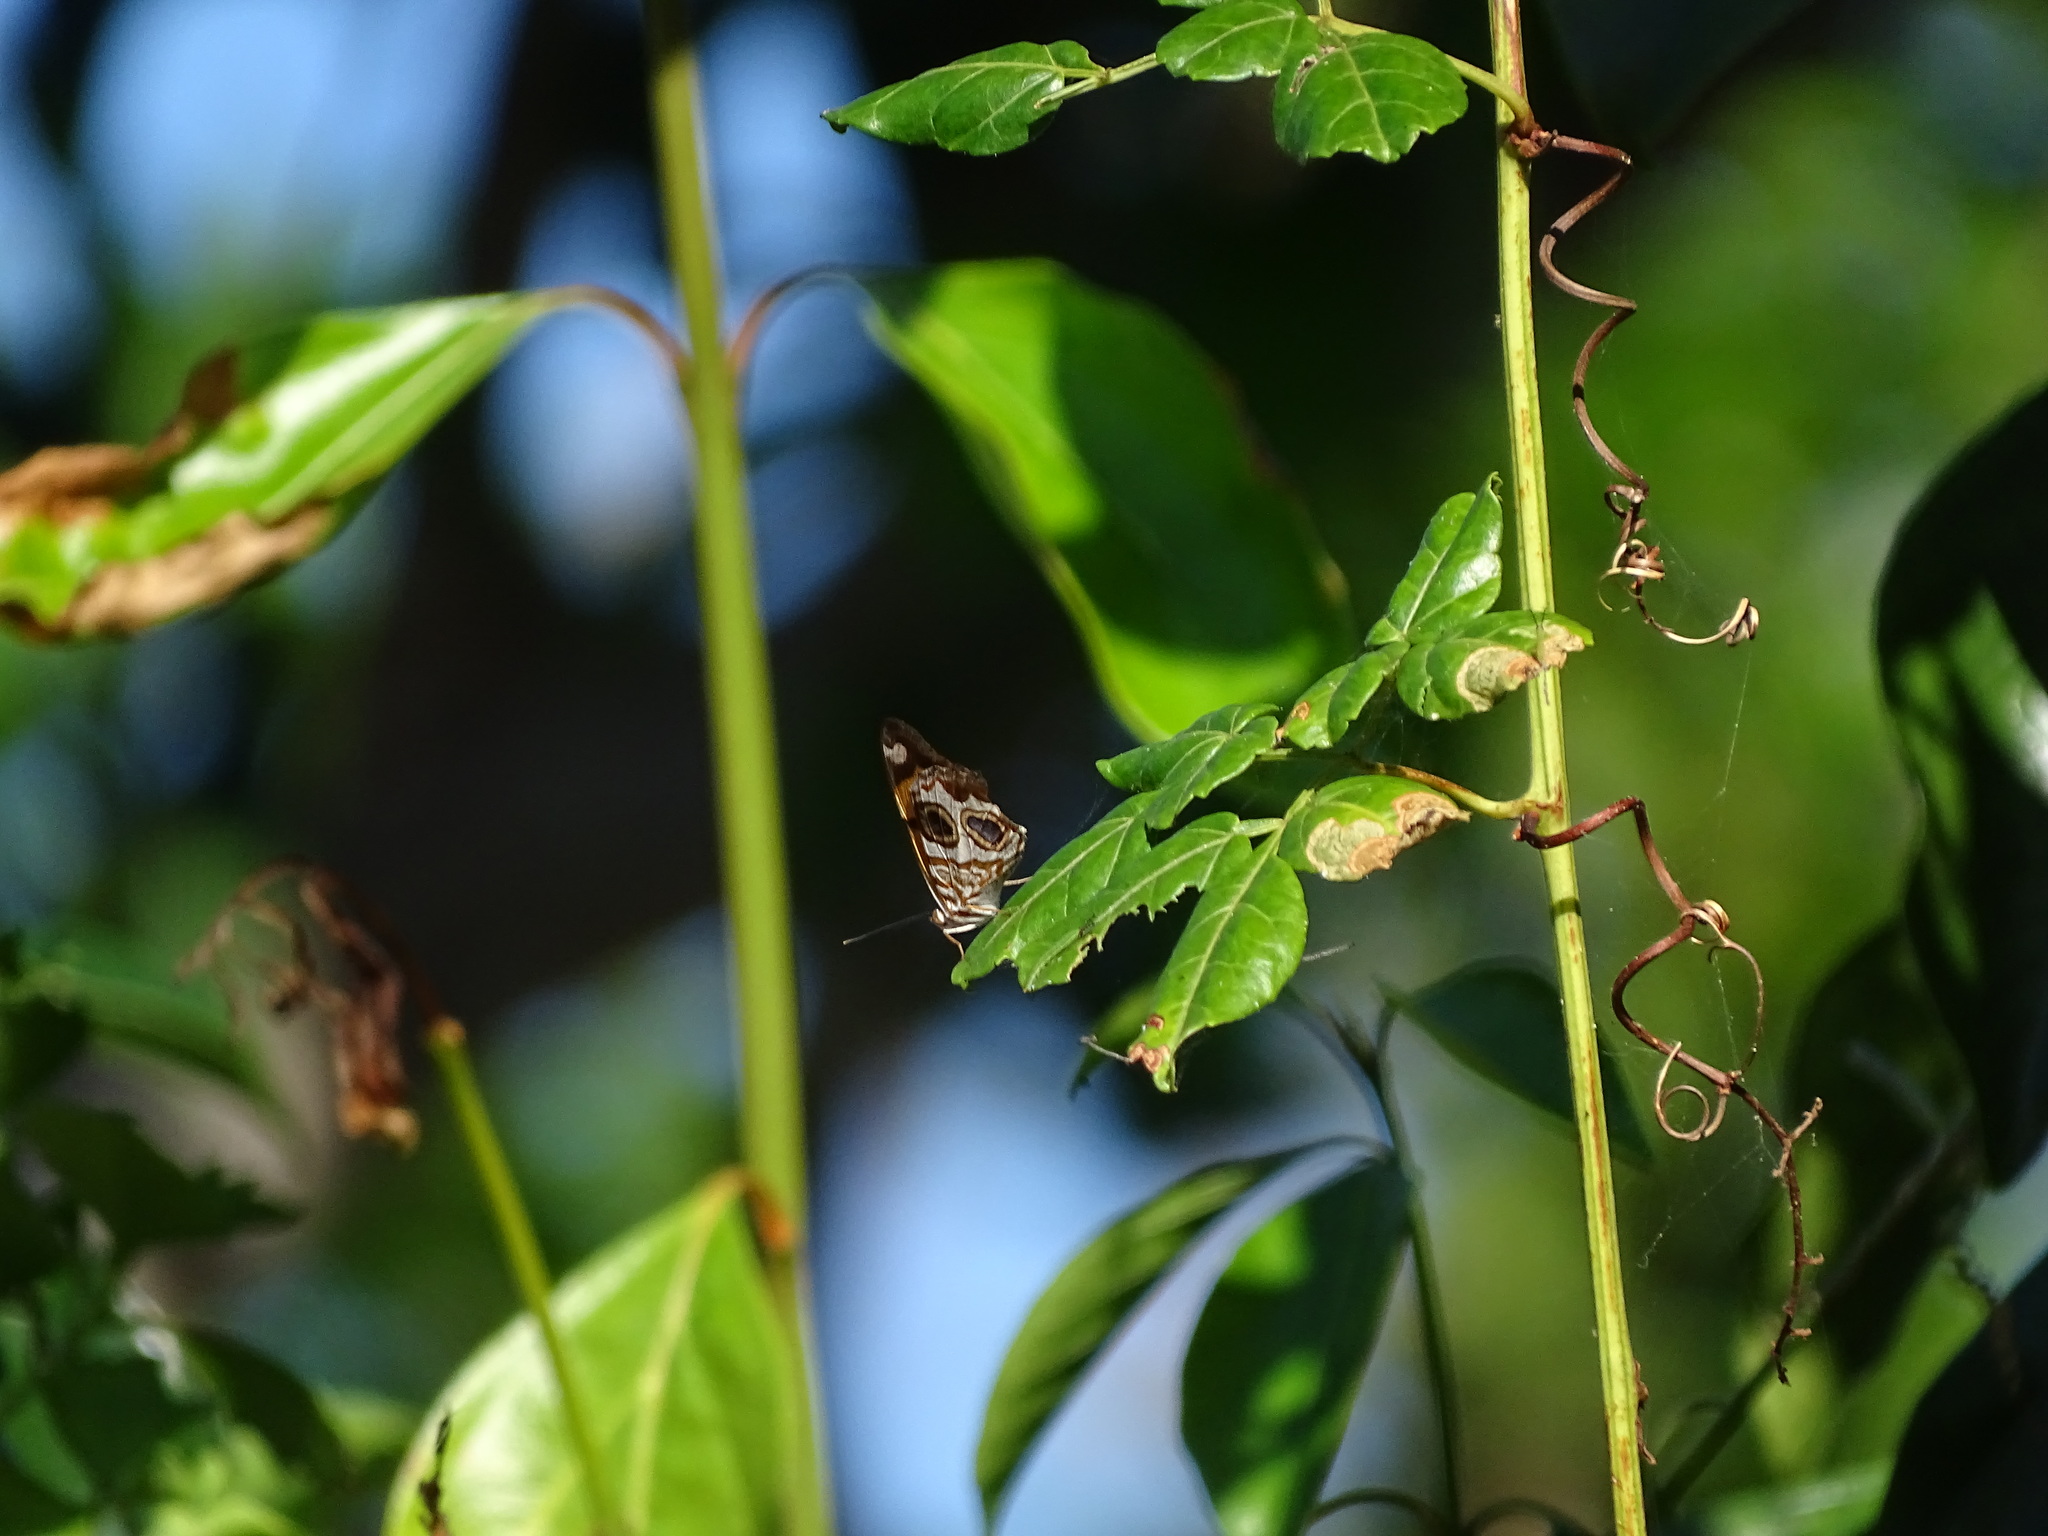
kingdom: Animalia
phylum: Arthropoda
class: Insecta
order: Lepidoptera
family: Nymphalidae
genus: Lucinia
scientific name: Lucinia sida
